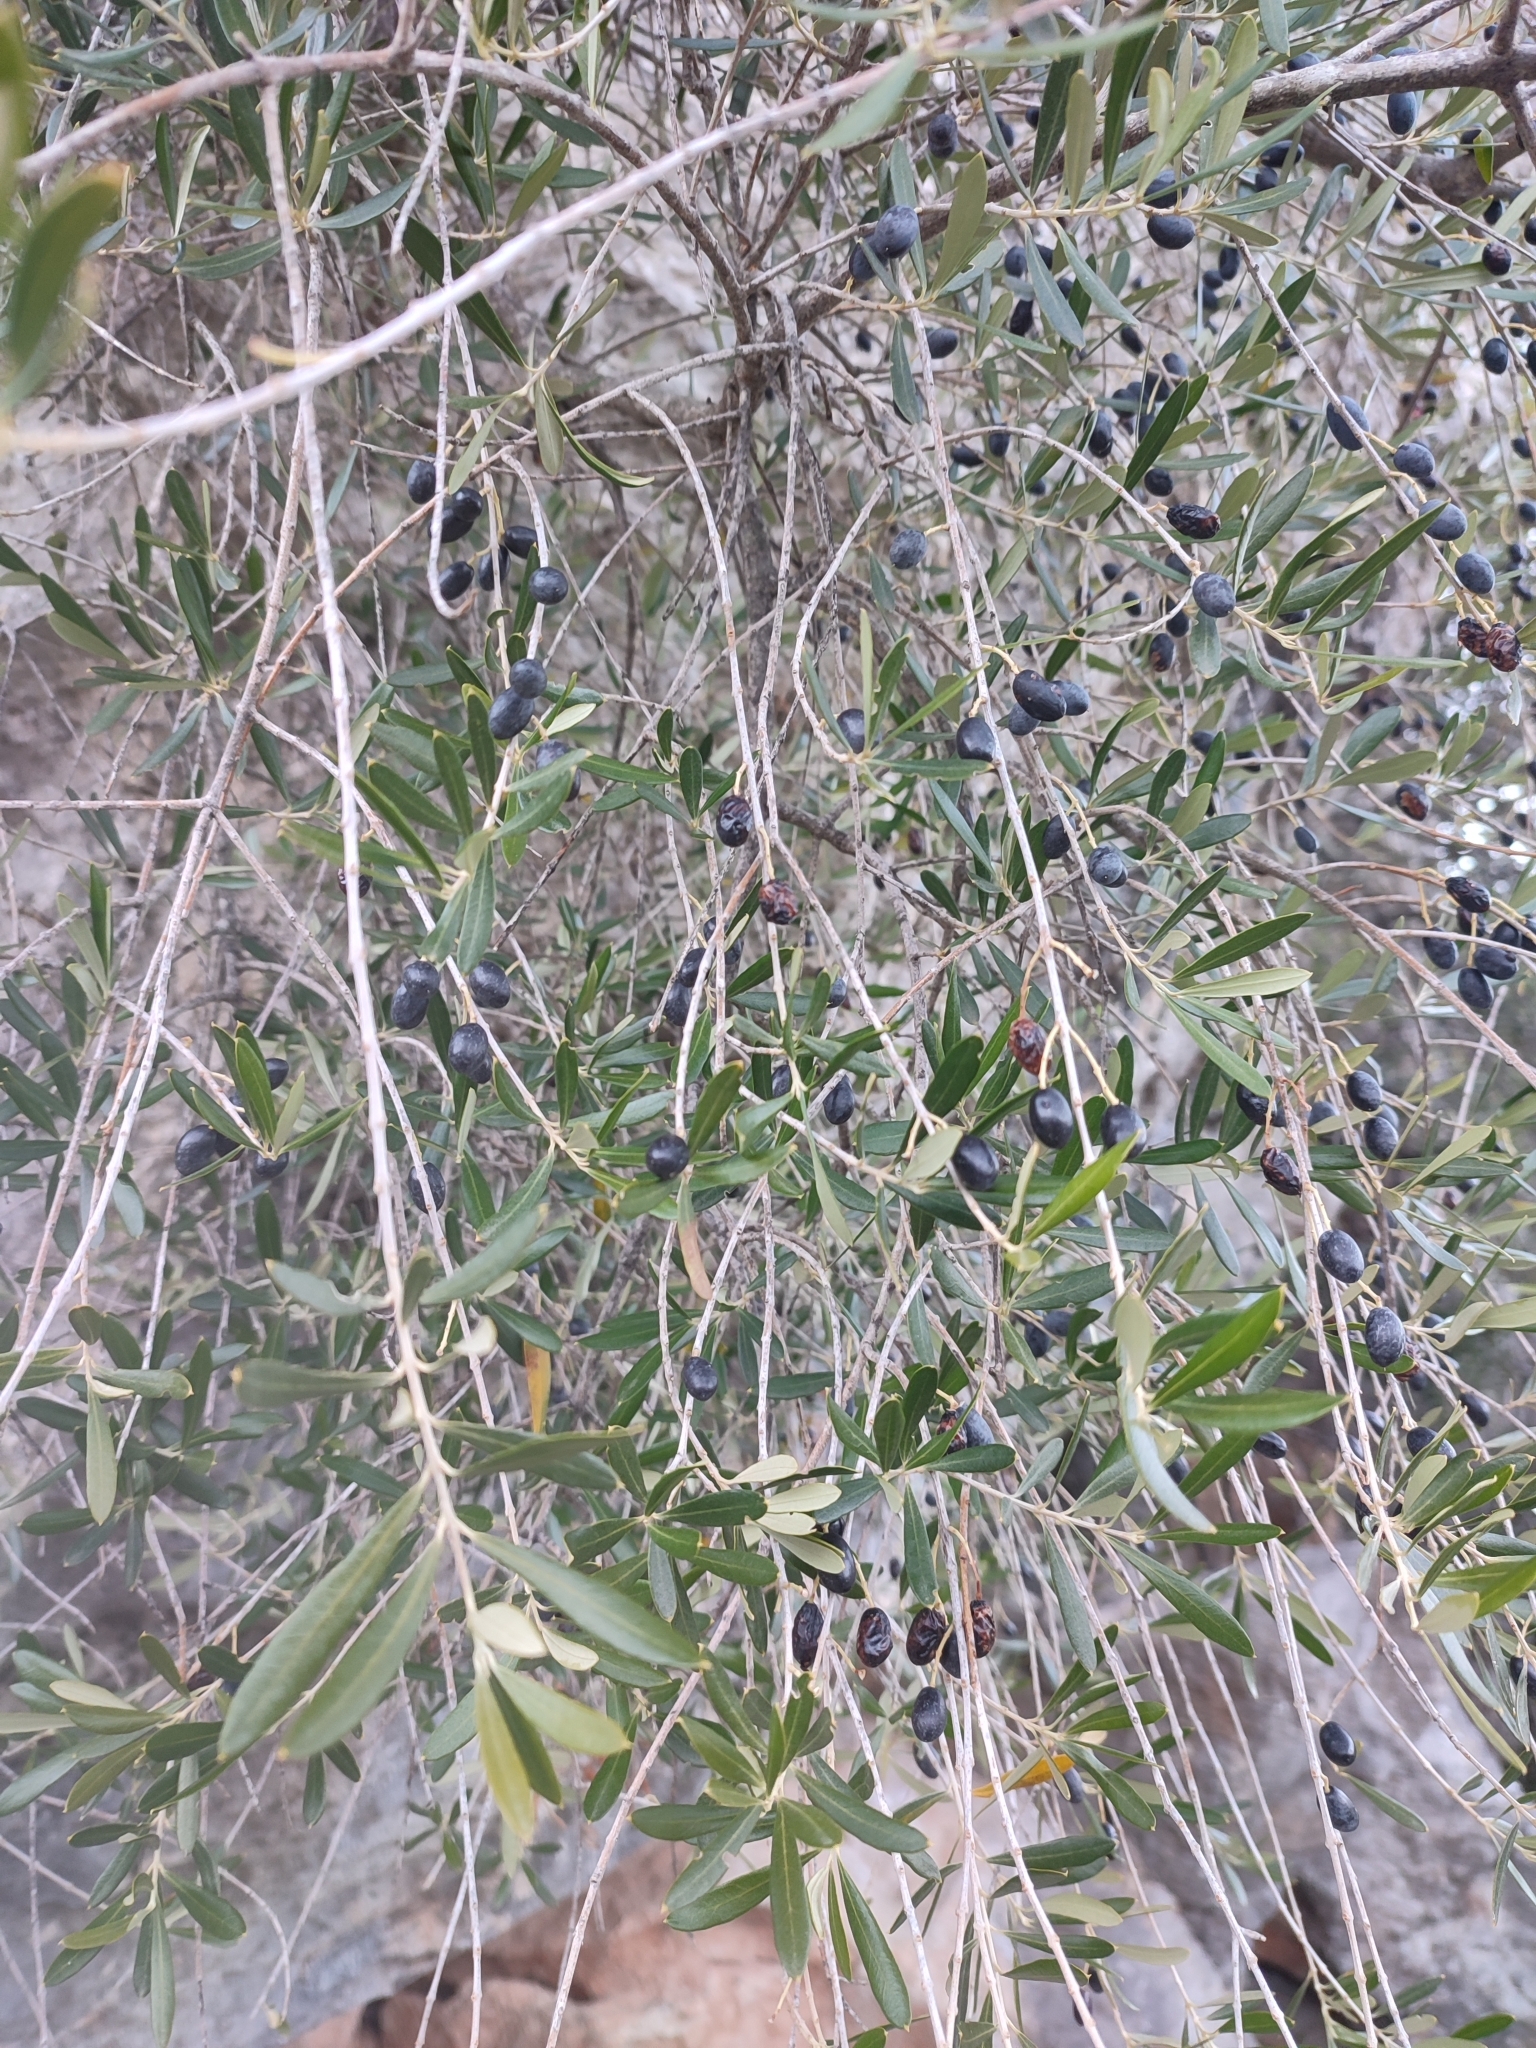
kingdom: Plantae
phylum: Tracheophyta
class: Magnoliopsida
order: Lamiales
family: Oleaceae
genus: Olea
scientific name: Olea europaea
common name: Olive
